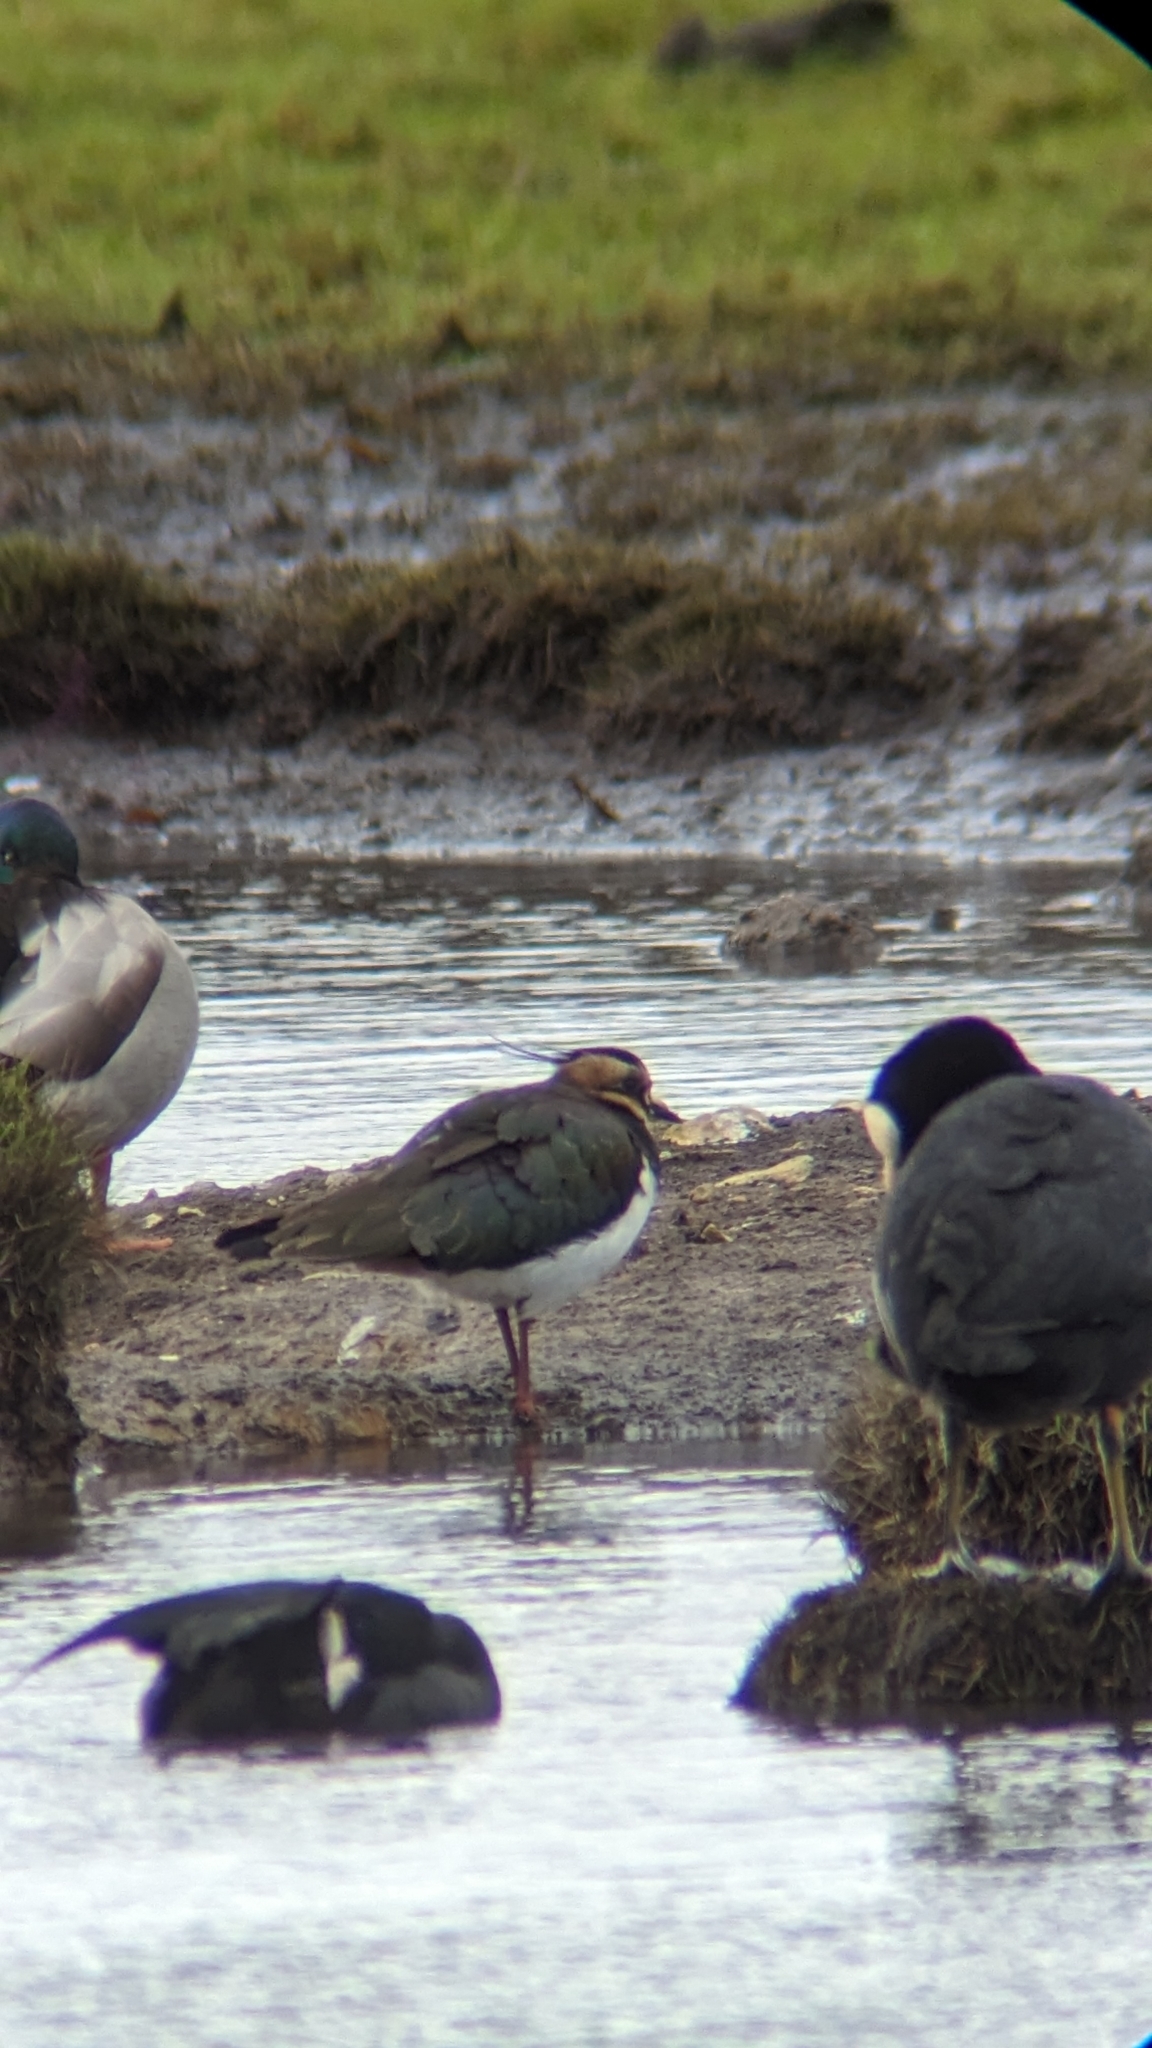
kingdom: Animalia
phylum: Chordata
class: Aves
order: Charadriiformes
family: Charadriidae
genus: Vanellus
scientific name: Vanellus vanellus
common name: Northern lapwing
